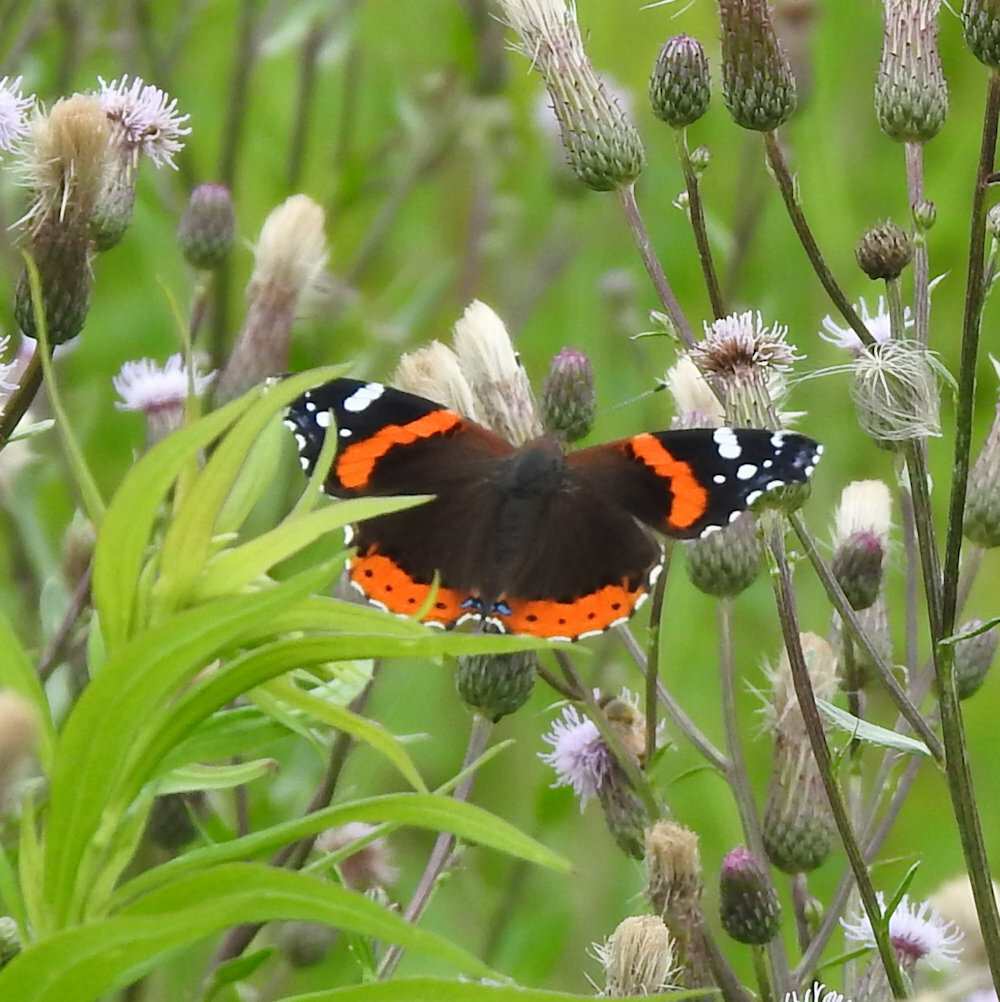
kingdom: Animalia
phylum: Arthropoda
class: Insecta
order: Lepidoptera
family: Nymphalidae
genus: Vanessa
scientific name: Vanessa atalanta
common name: Red admiral
